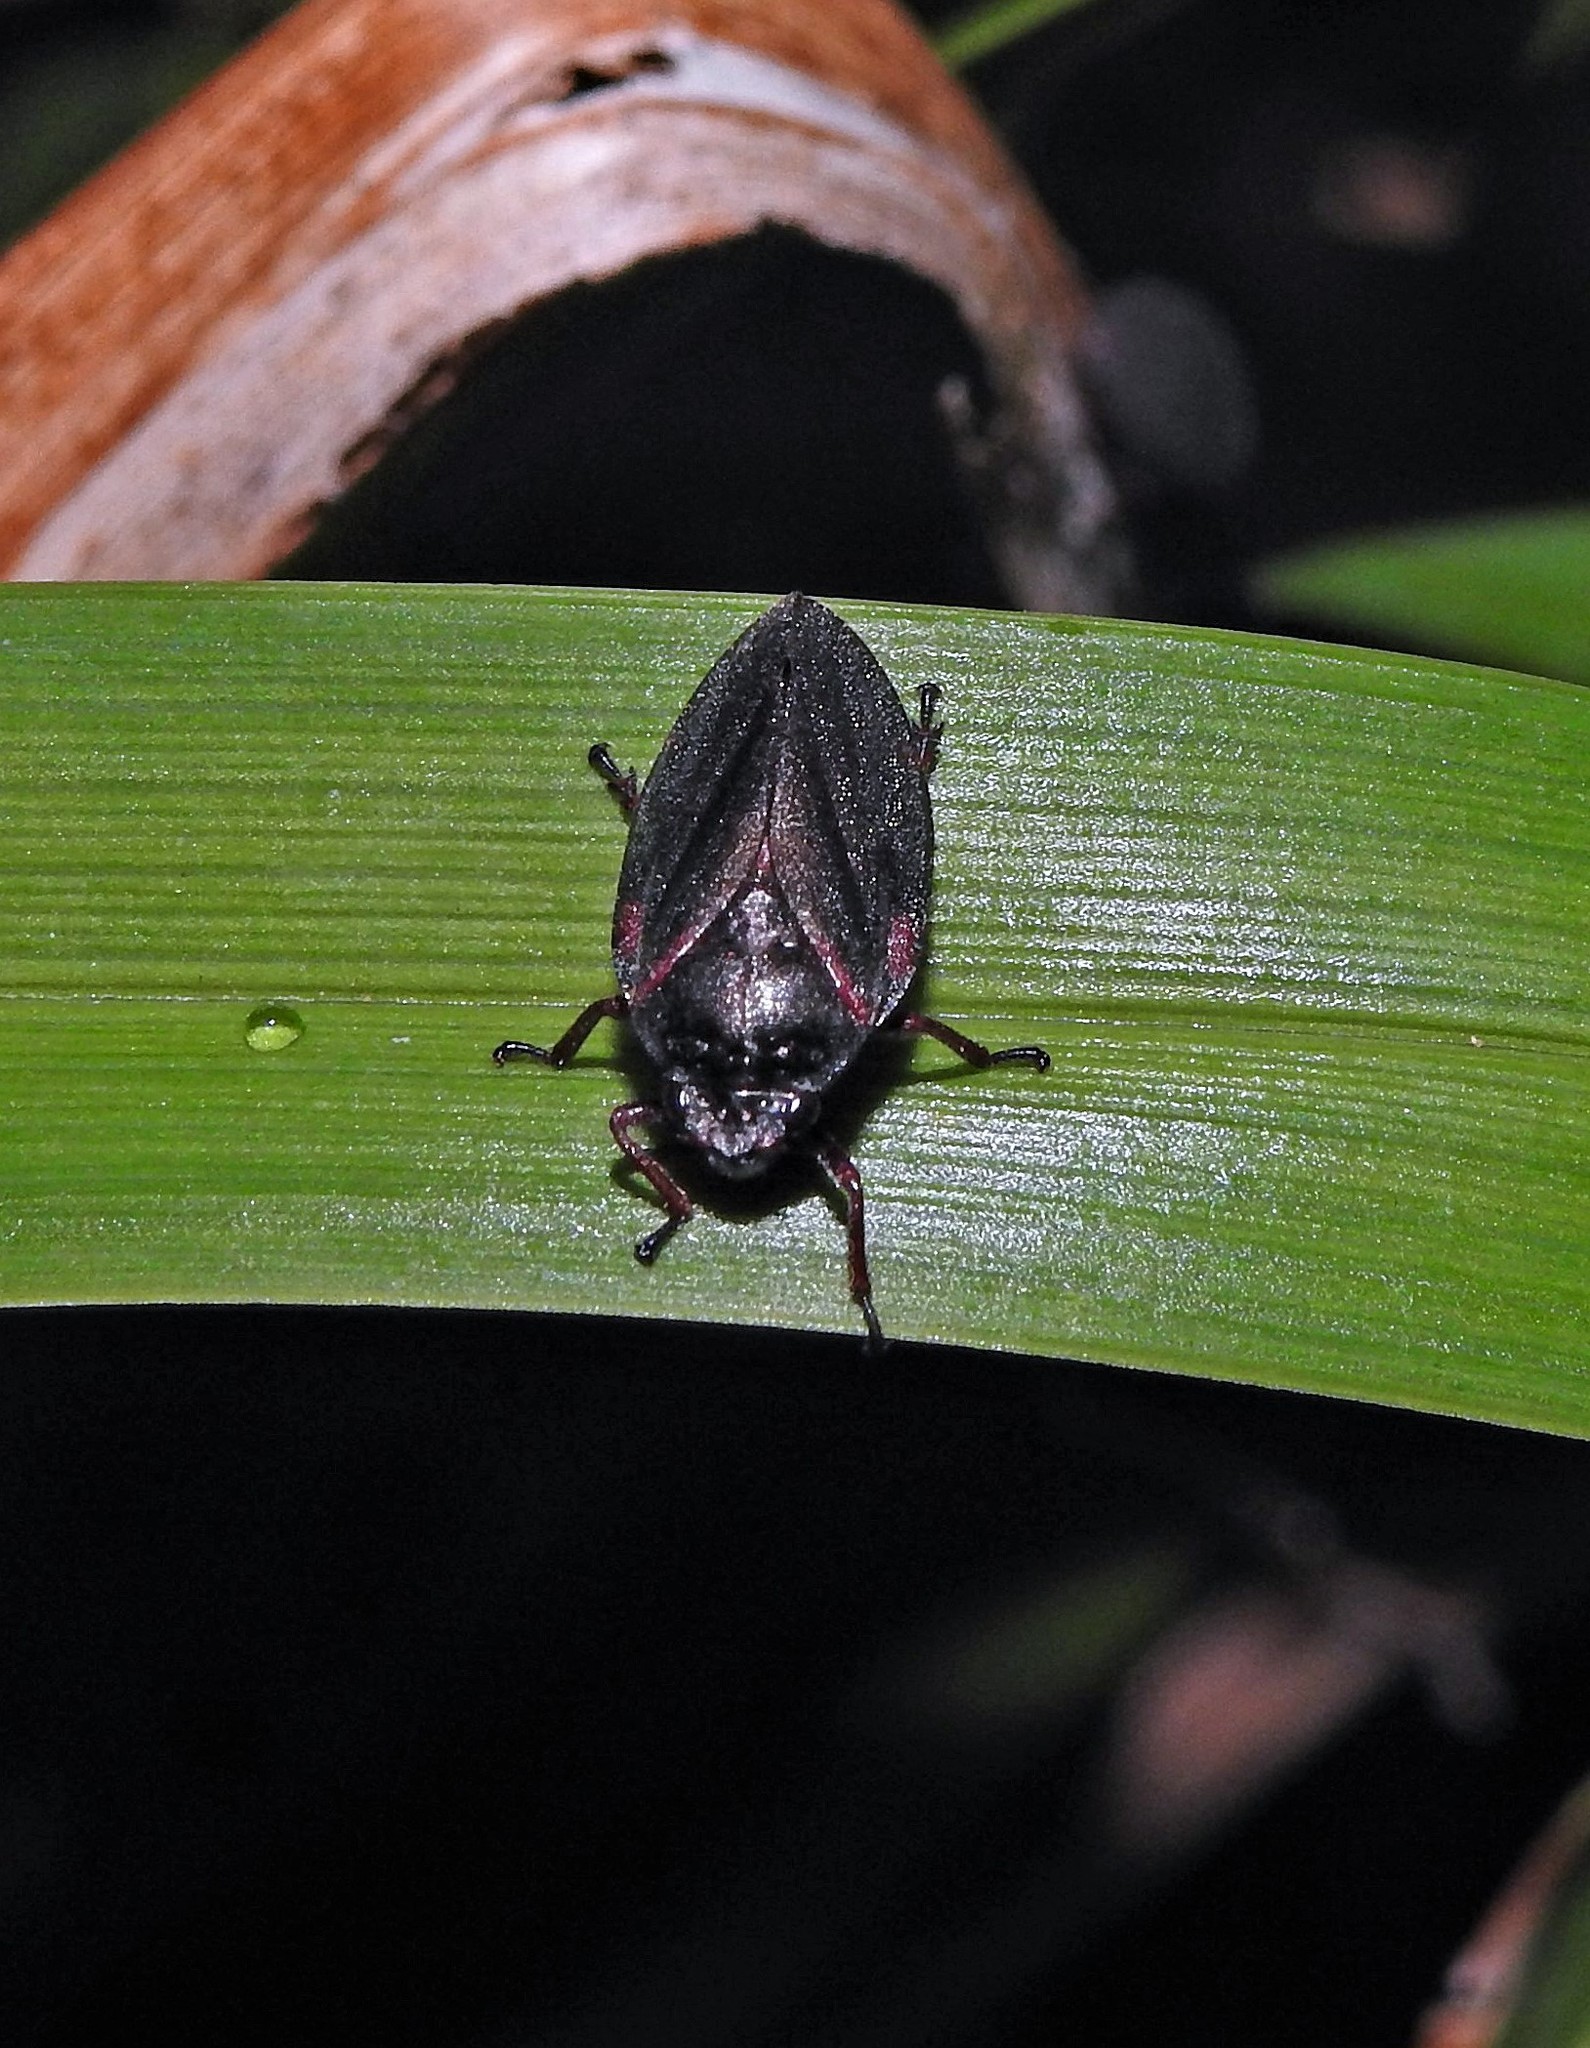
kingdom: Animalia
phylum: Arthropoda
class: Insecta
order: Hemiptera
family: Cercopidae
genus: Deois
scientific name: Deois knoblauchii
